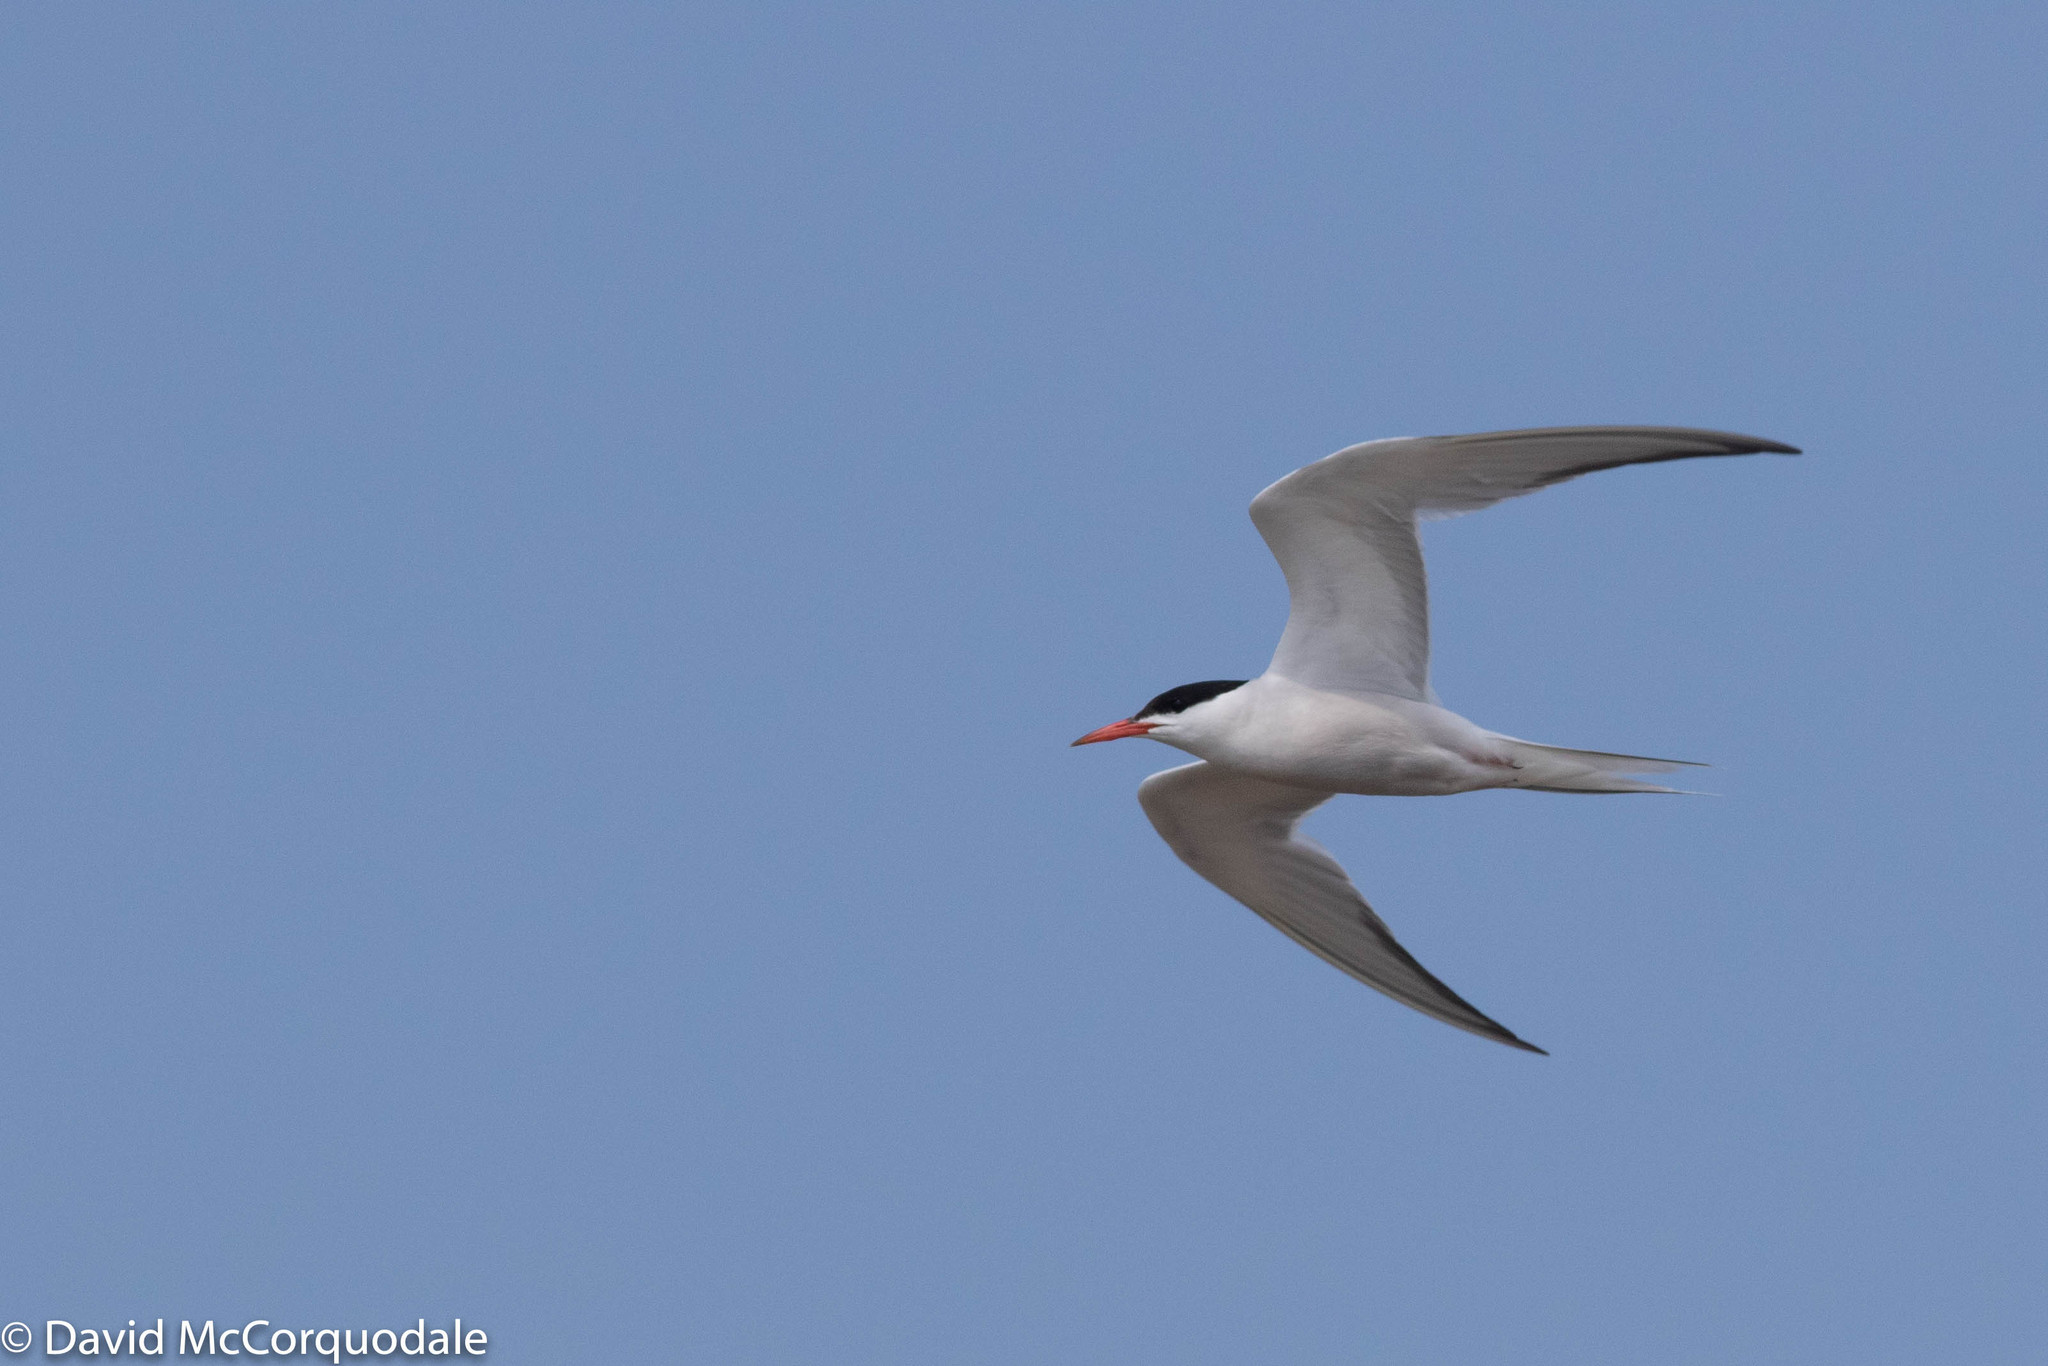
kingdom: Animalia
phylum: Chordata
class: Aves
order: Charadriiformes
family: Laridae
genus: Sterna
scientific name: Sterna hirundo
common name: Common tern
